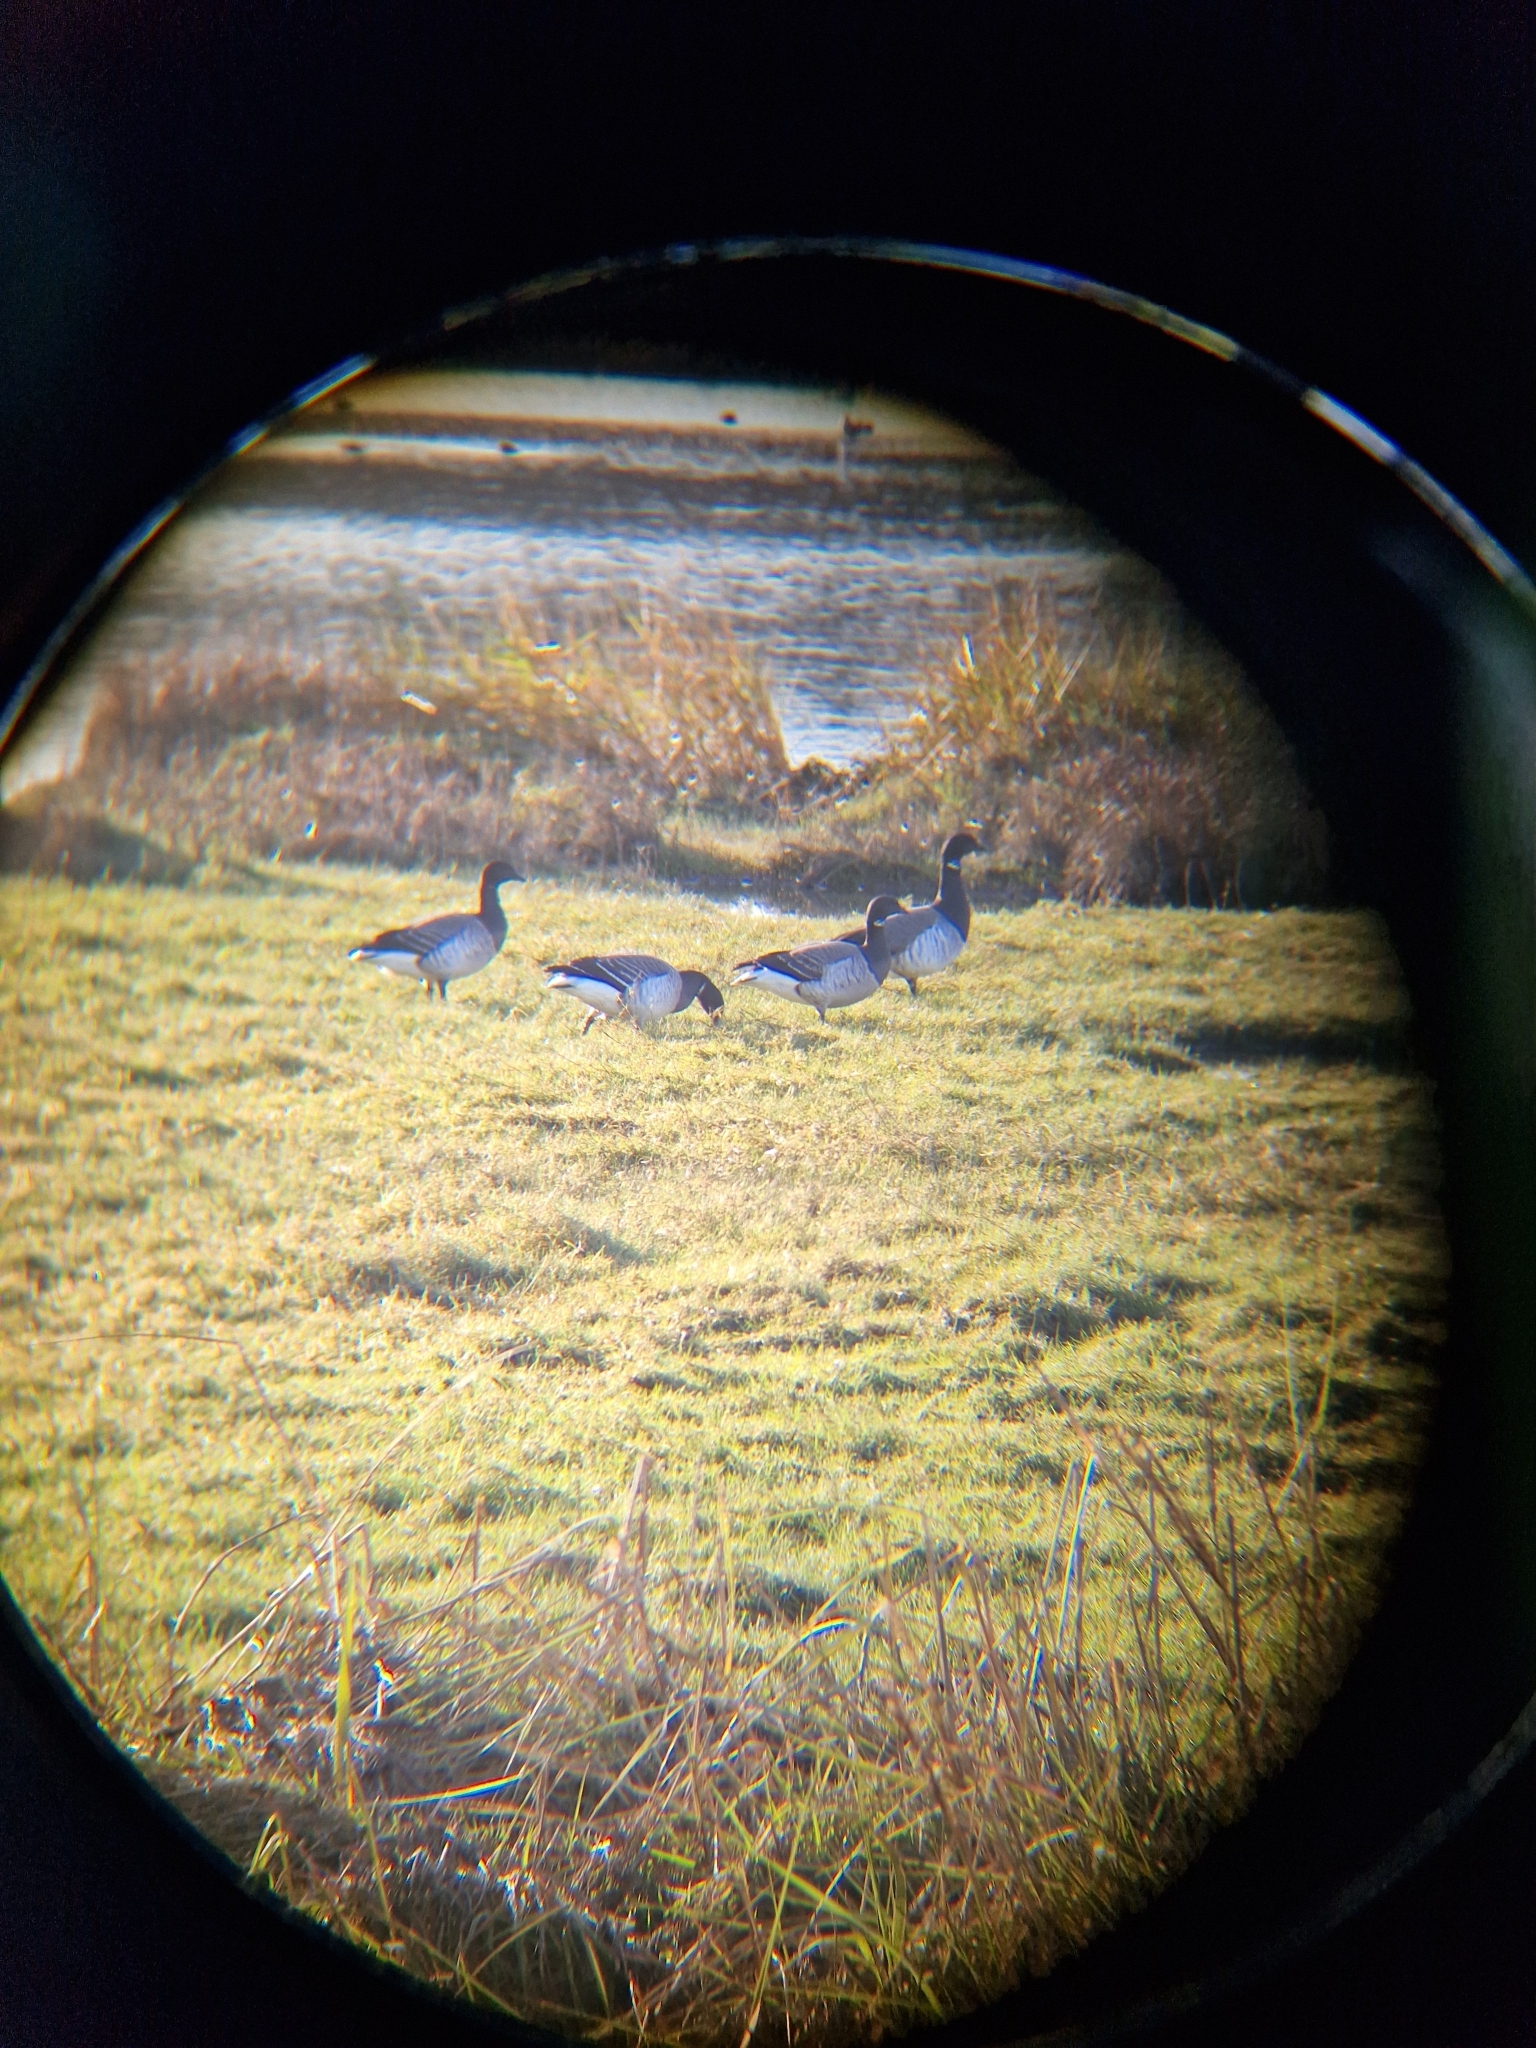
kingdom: Animalia
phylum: Chordata
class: Aves
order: Anseriformes
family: Anatidae
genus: Branta
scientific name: Branta bernicla
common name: Brant goose
